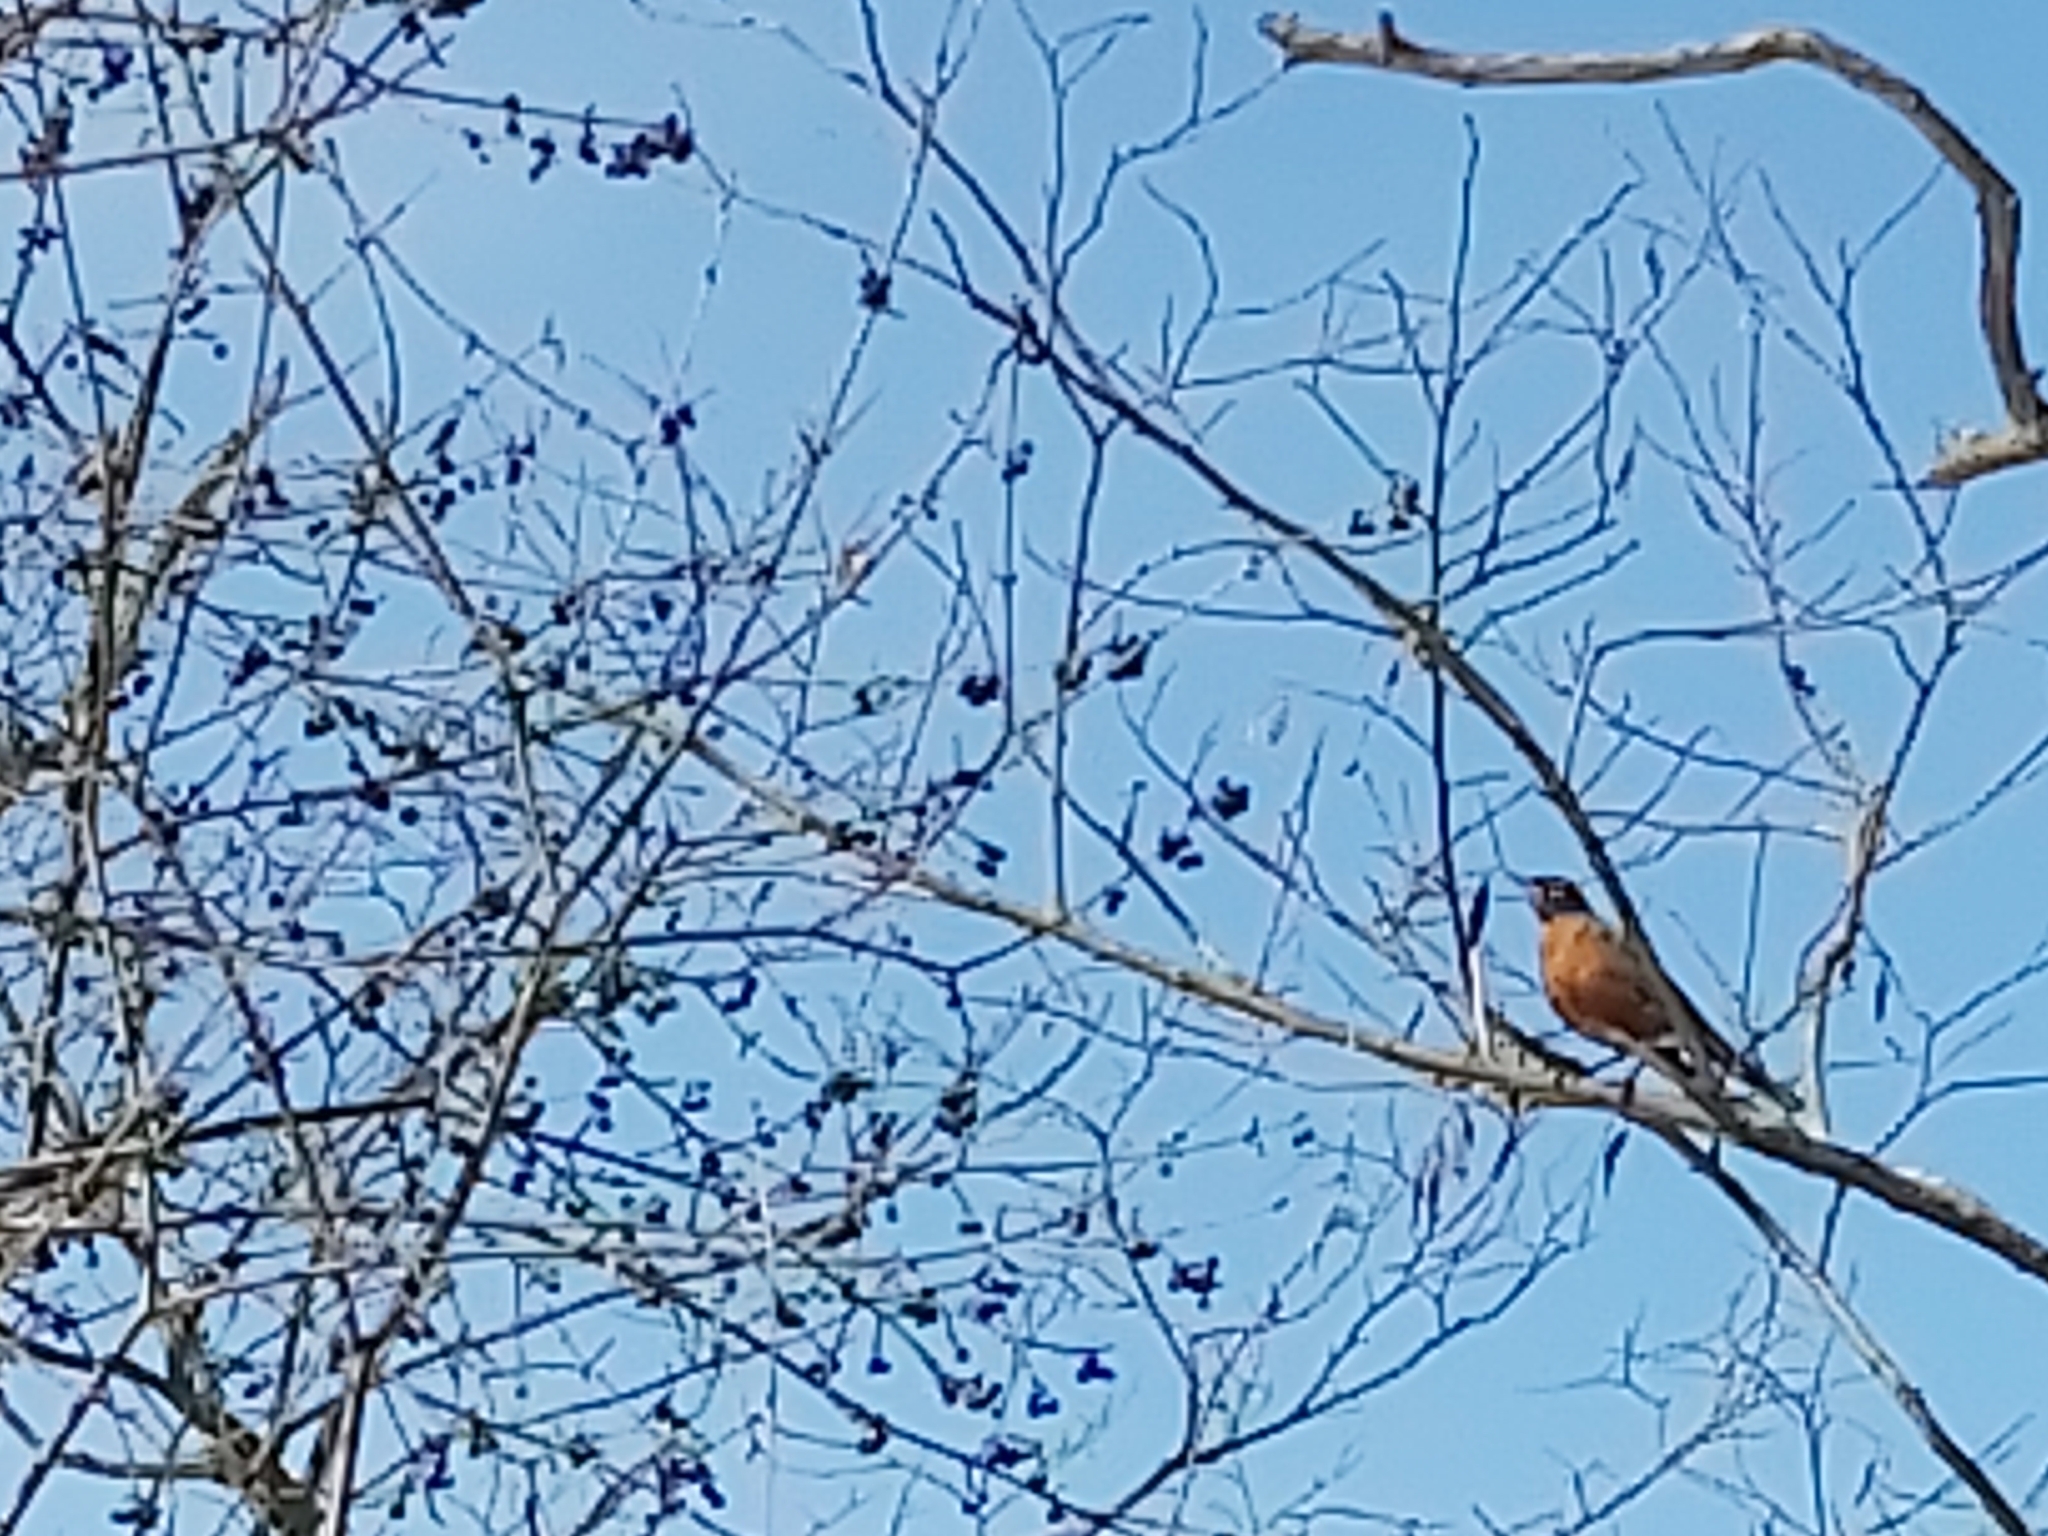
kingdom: Animalia
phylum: Chordata
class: Aves
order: Passeriformes
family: Turdidae
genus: Turdus
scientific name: Turdus migratorius
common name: American robin
